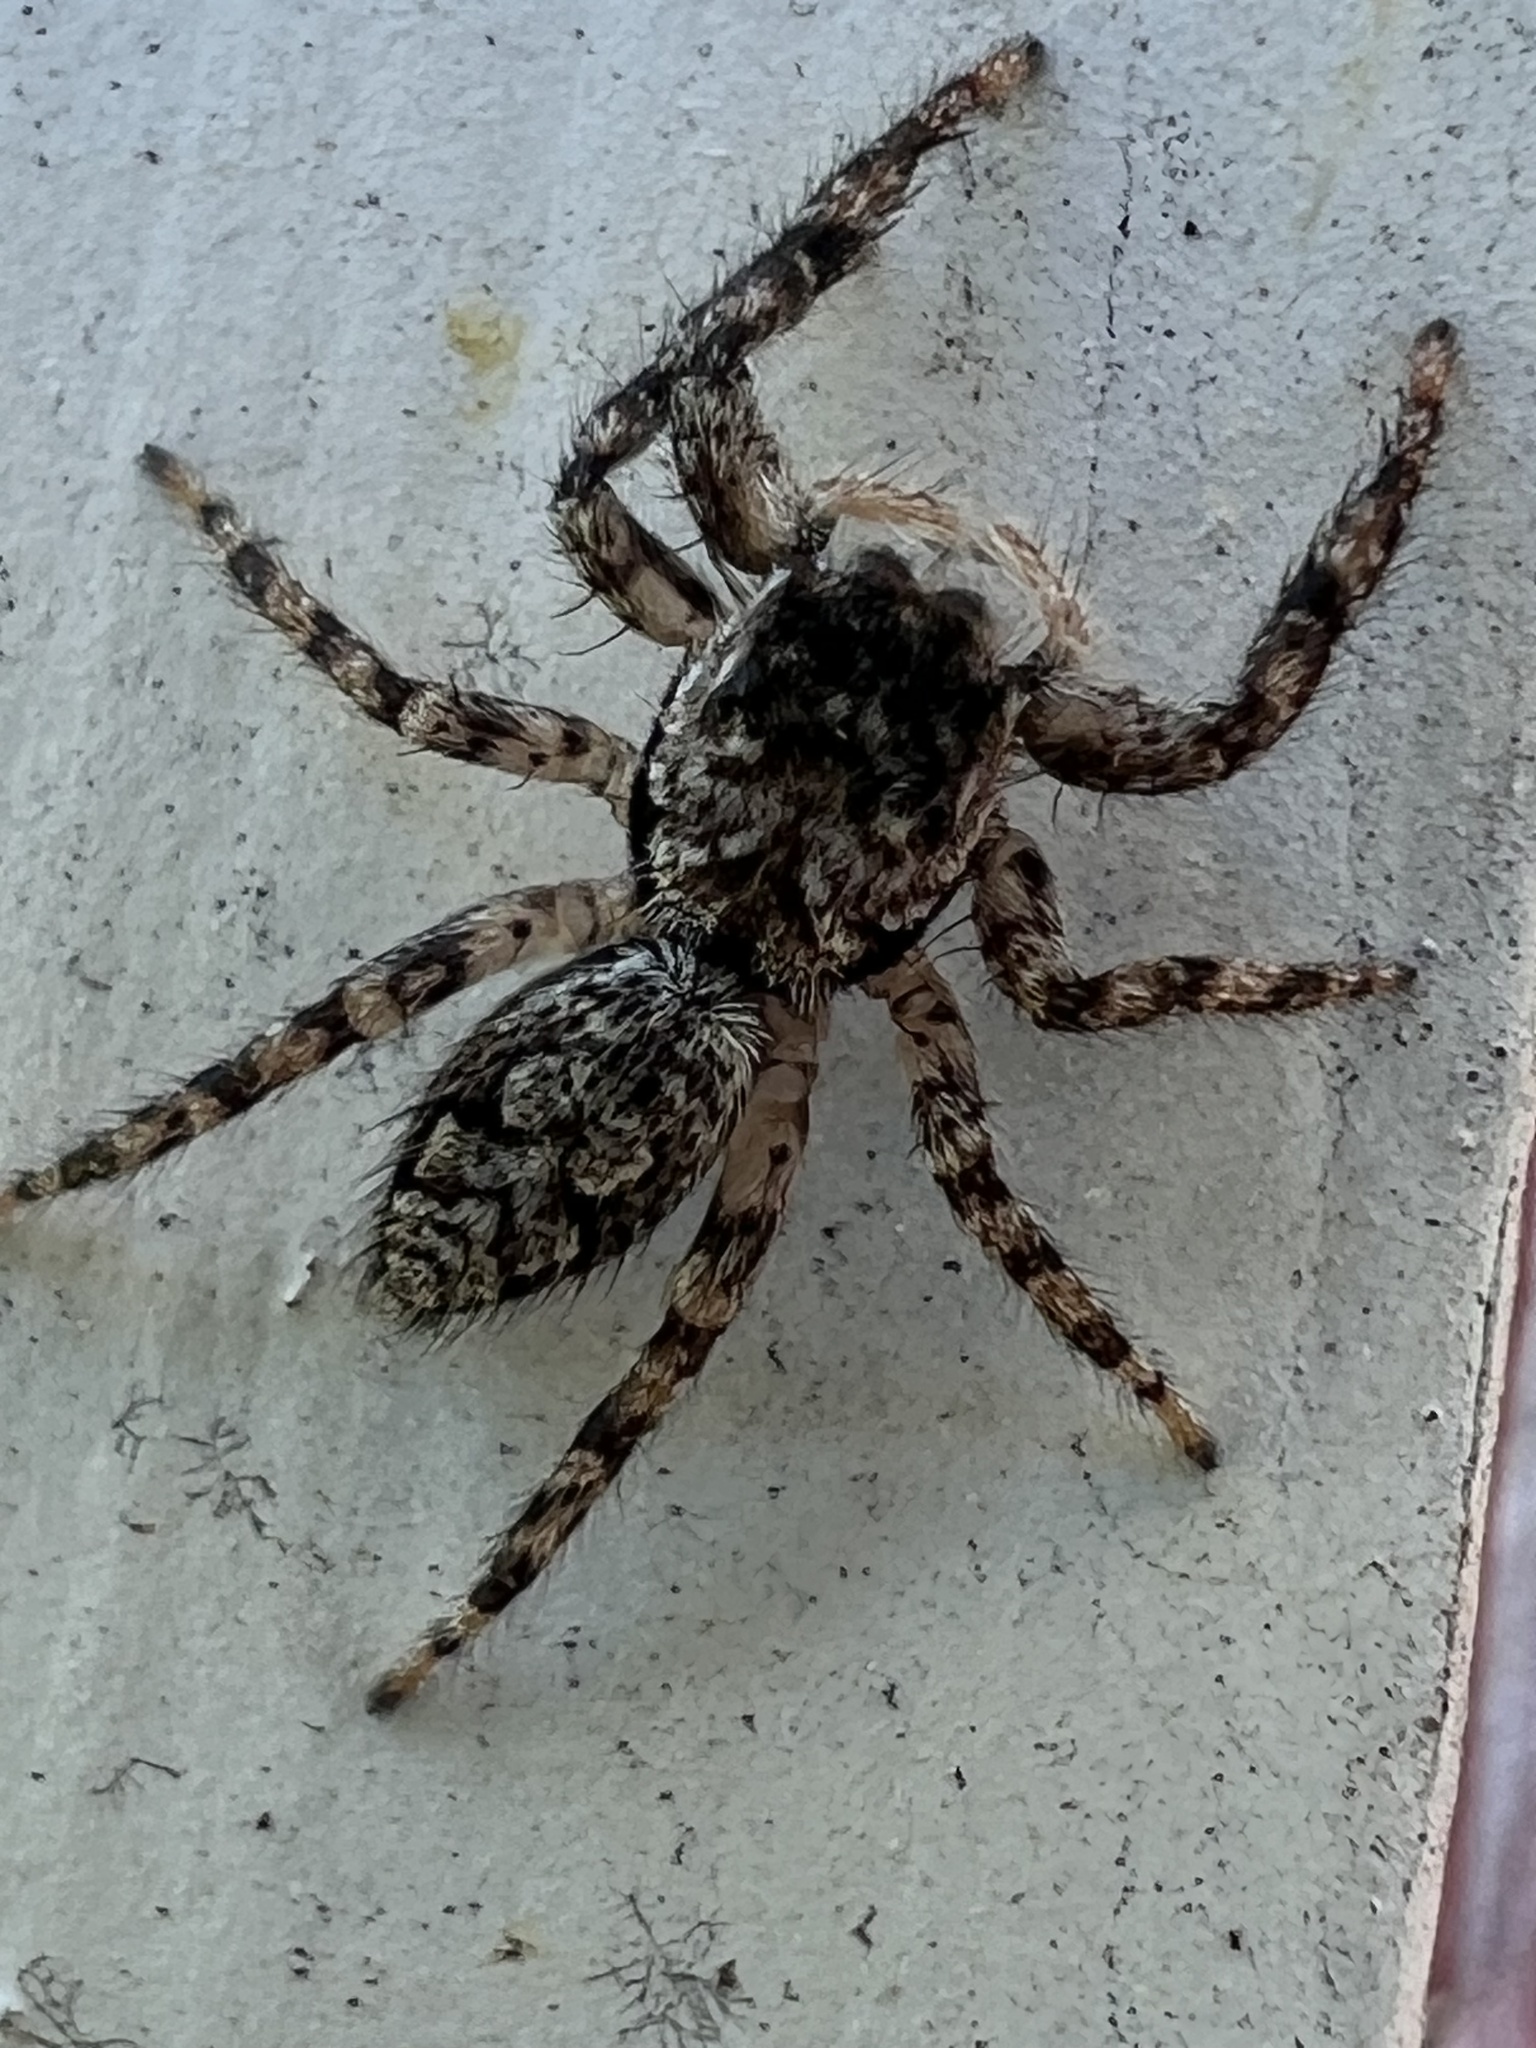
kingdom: Animalia
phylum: Arthropoda
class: Arachnida
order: Araneae
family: Salticidae
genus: Platycryptus
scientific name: Platycryptus undatus
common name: Tan jumping spider
